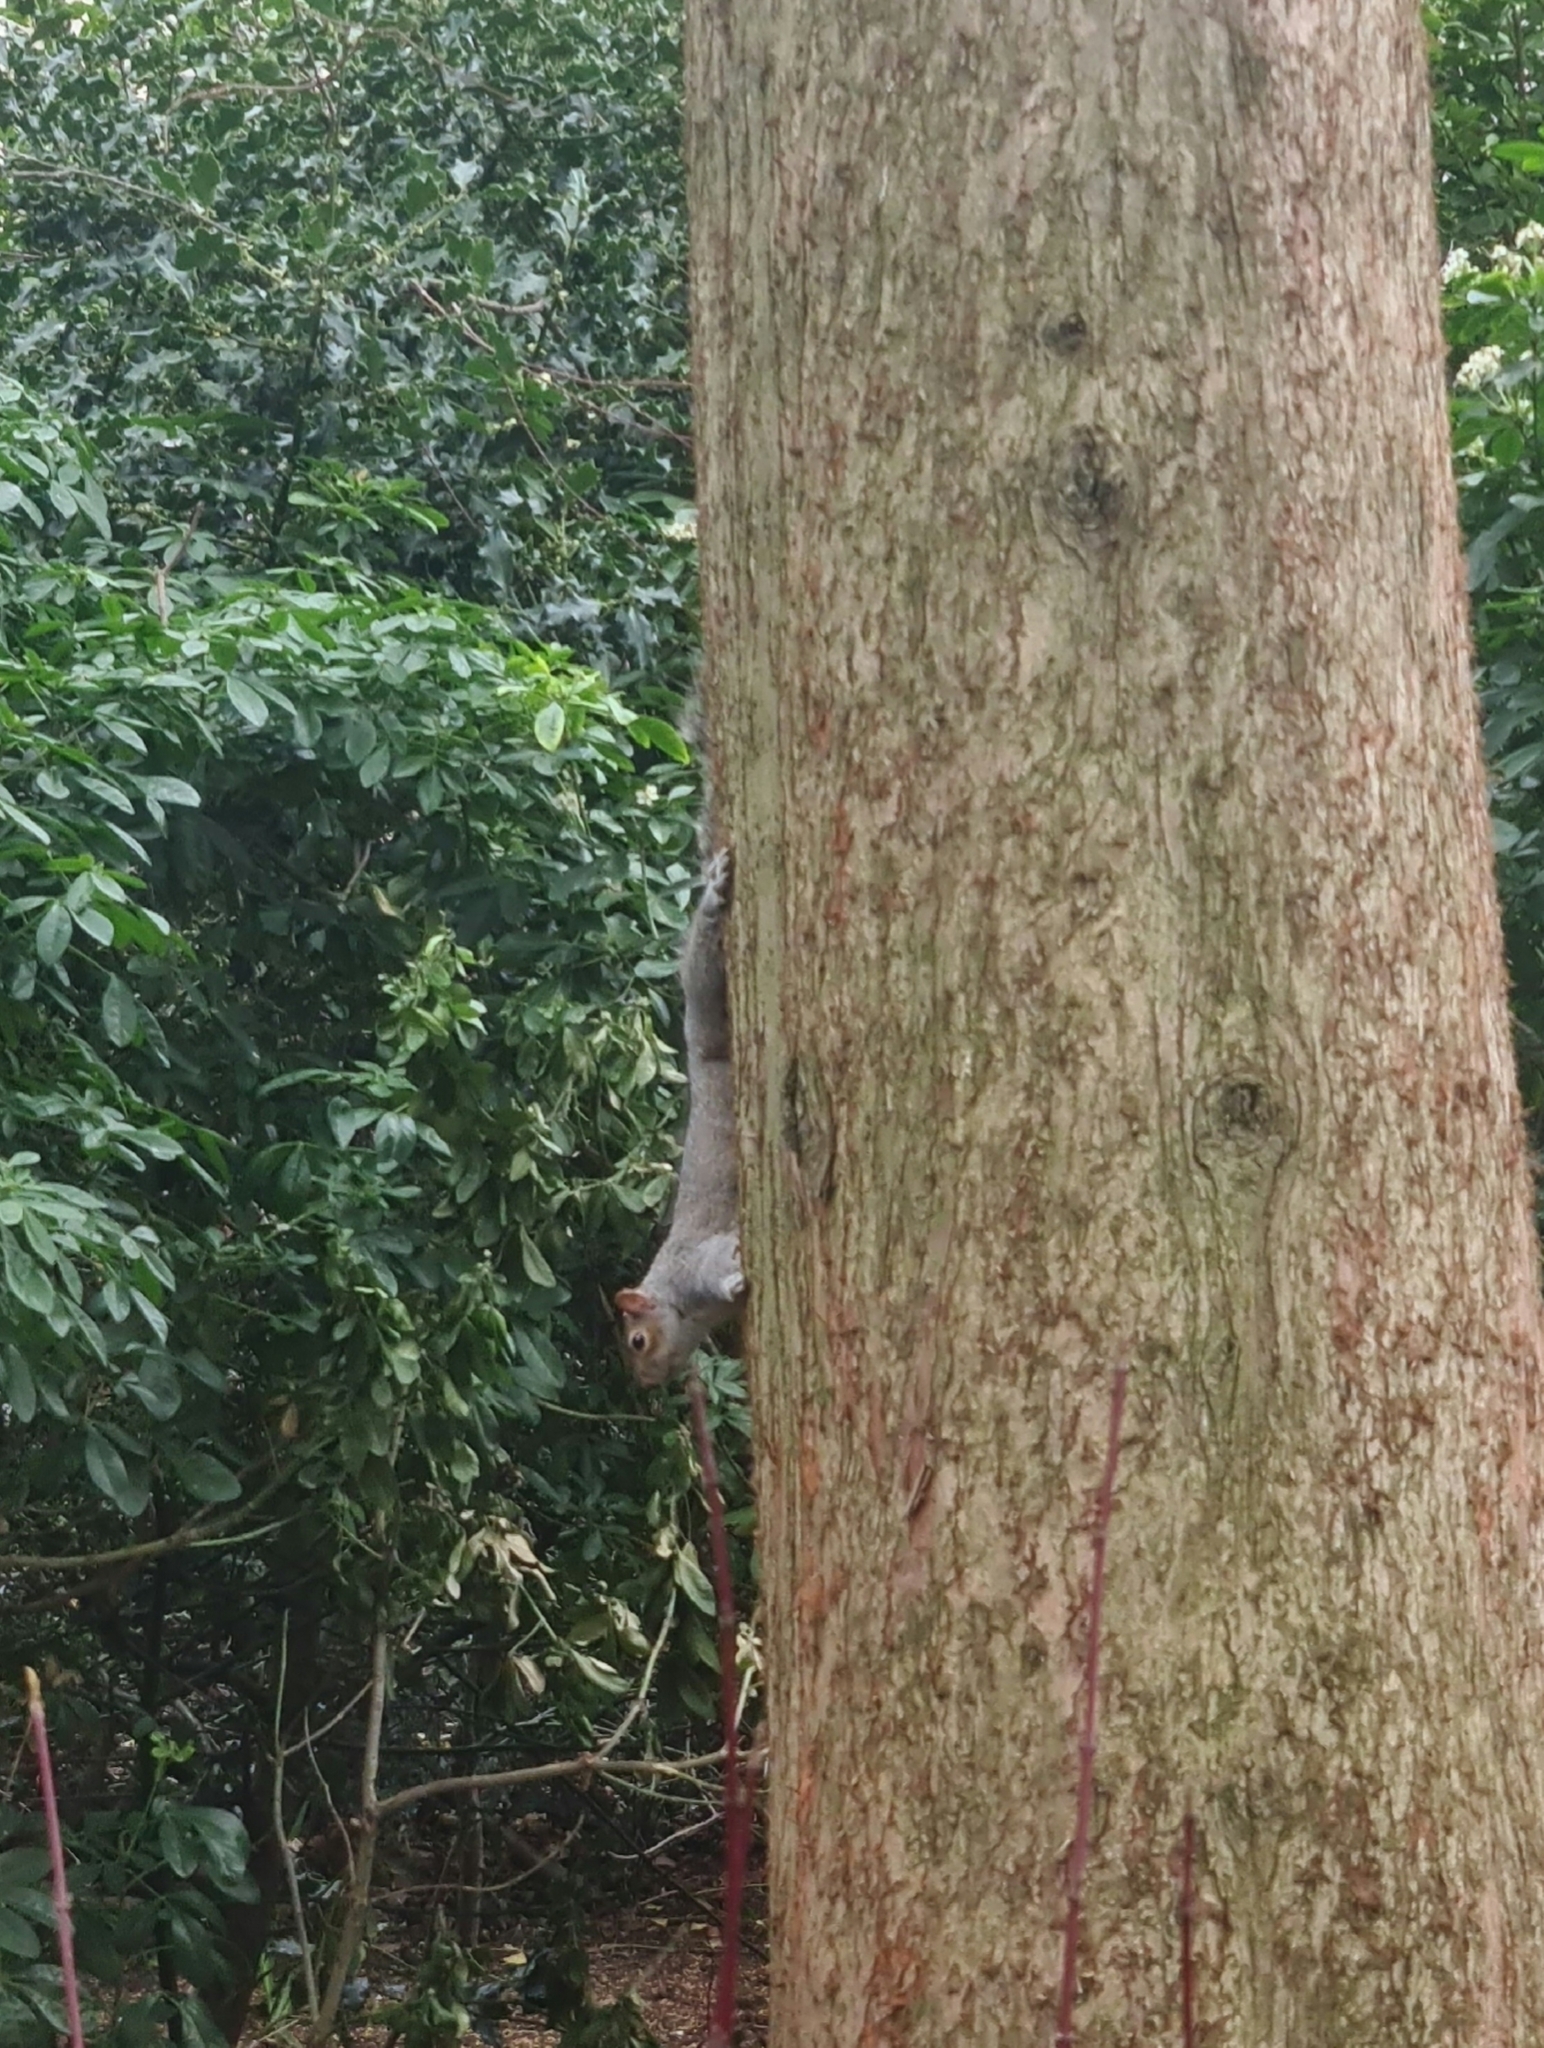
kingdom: Animalia
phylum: Chordata
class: Mammalia
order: Rodentia
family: Sciuridae
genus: Sciurus
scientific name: Sciurus carolinensis
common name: Eastern gray squirrel
